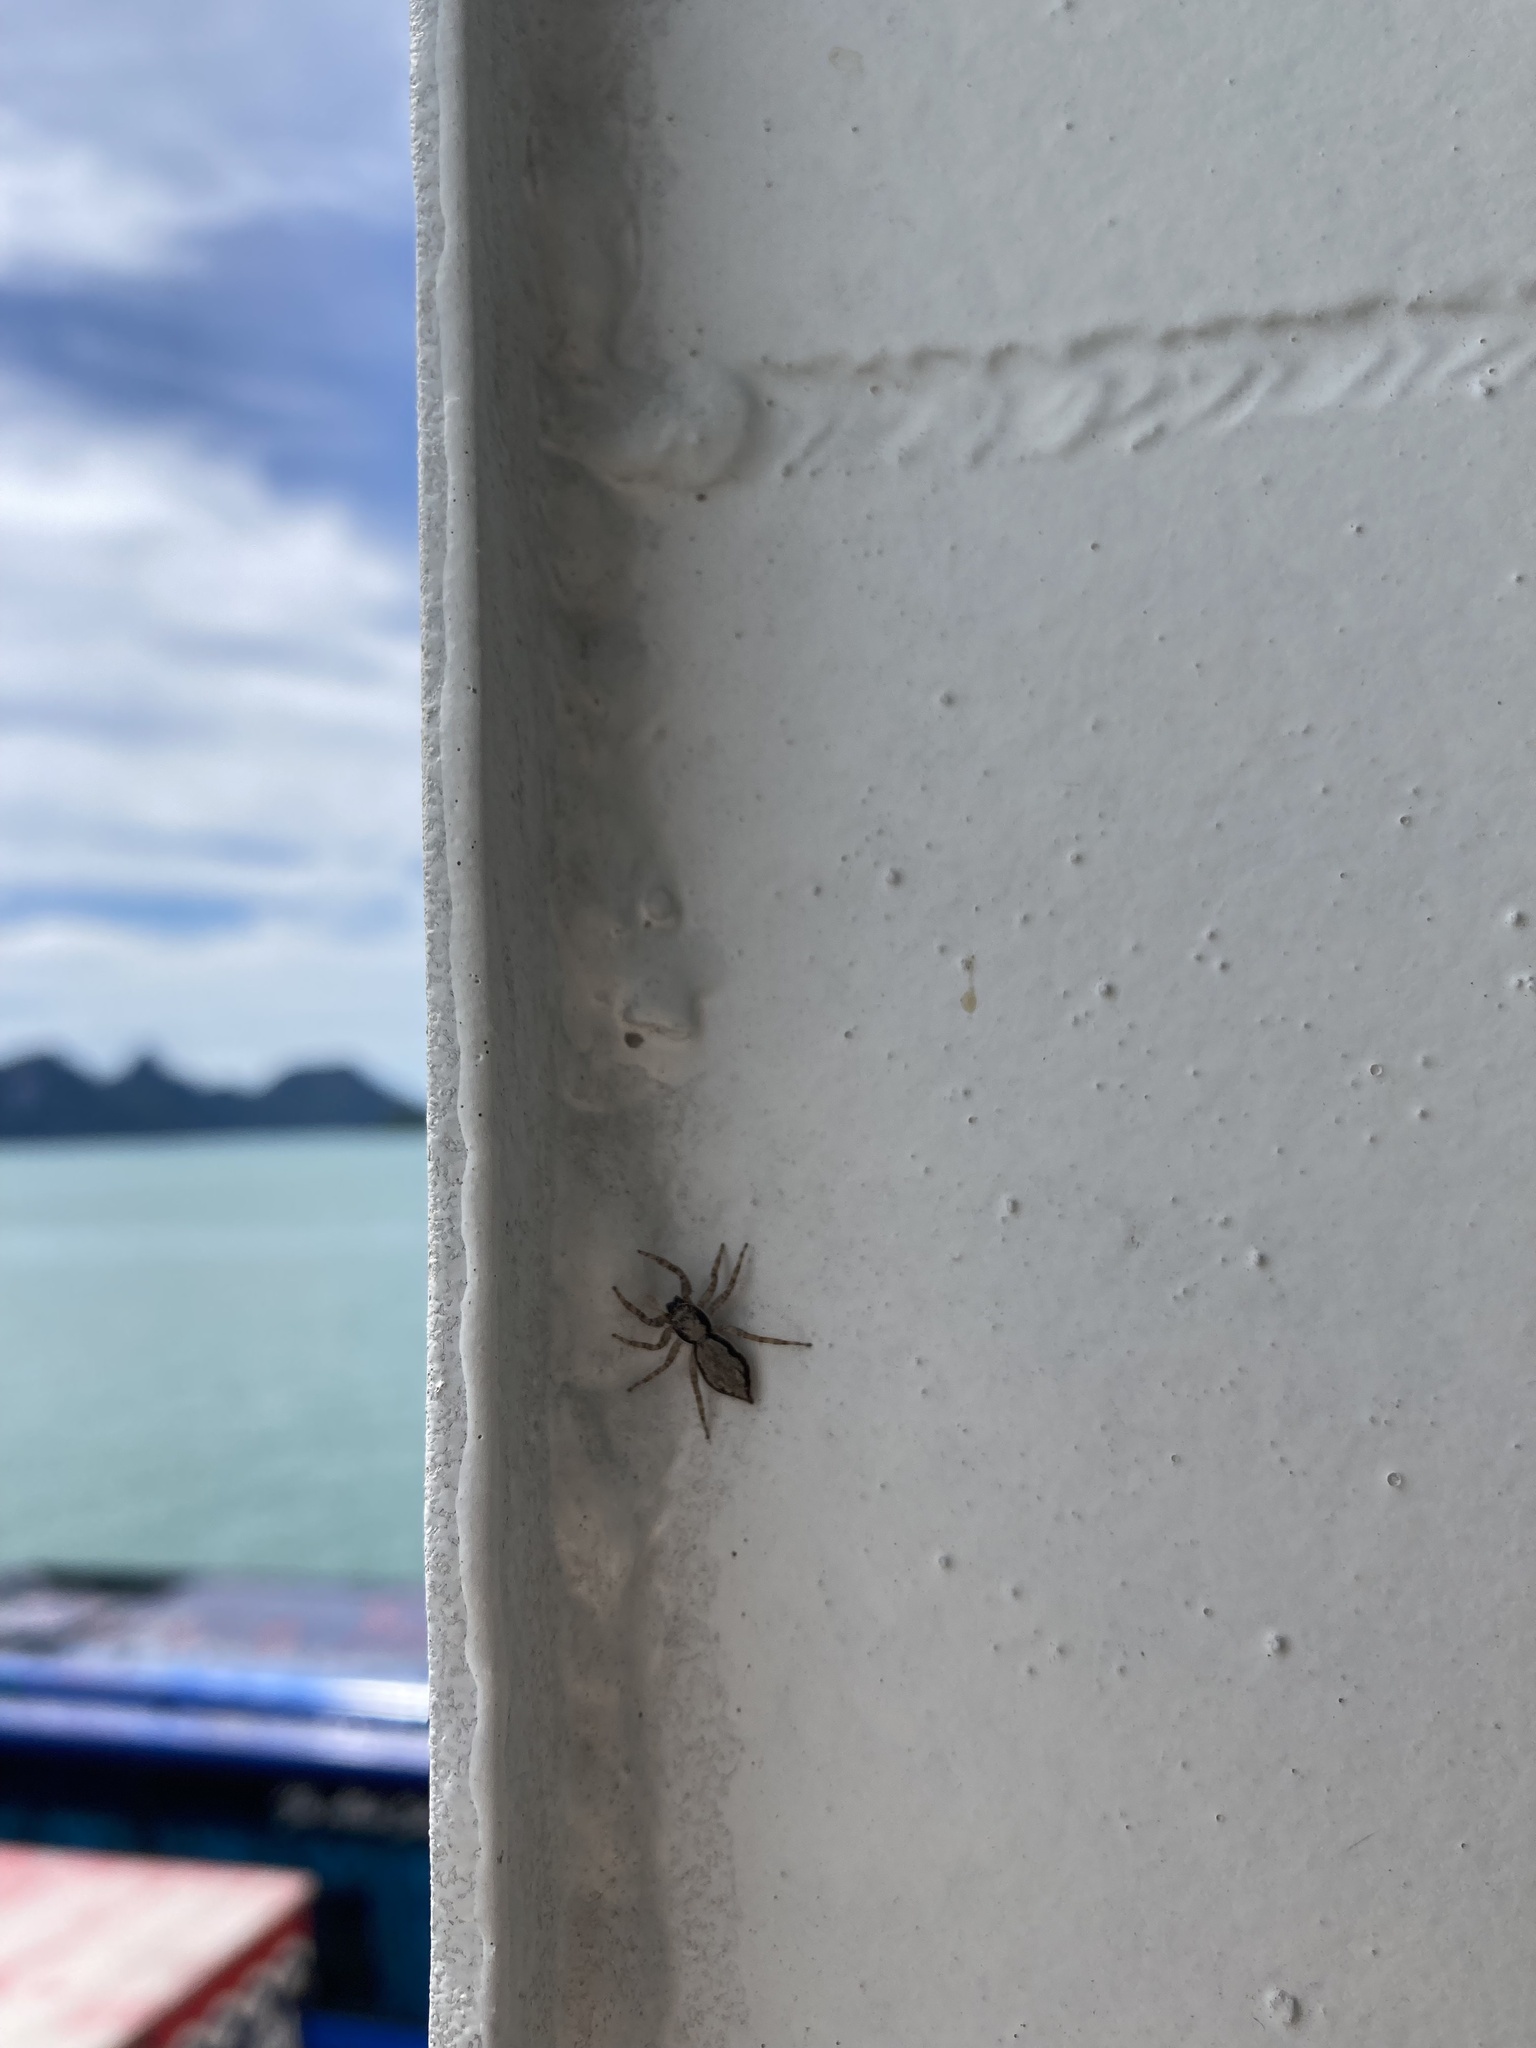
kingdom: Animalia
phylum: Arthropoda
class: Arachnida
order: Araneae
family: Salticidae
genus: Menemerus
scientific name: Menemerus bivittatus
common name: Gray wall jumper
